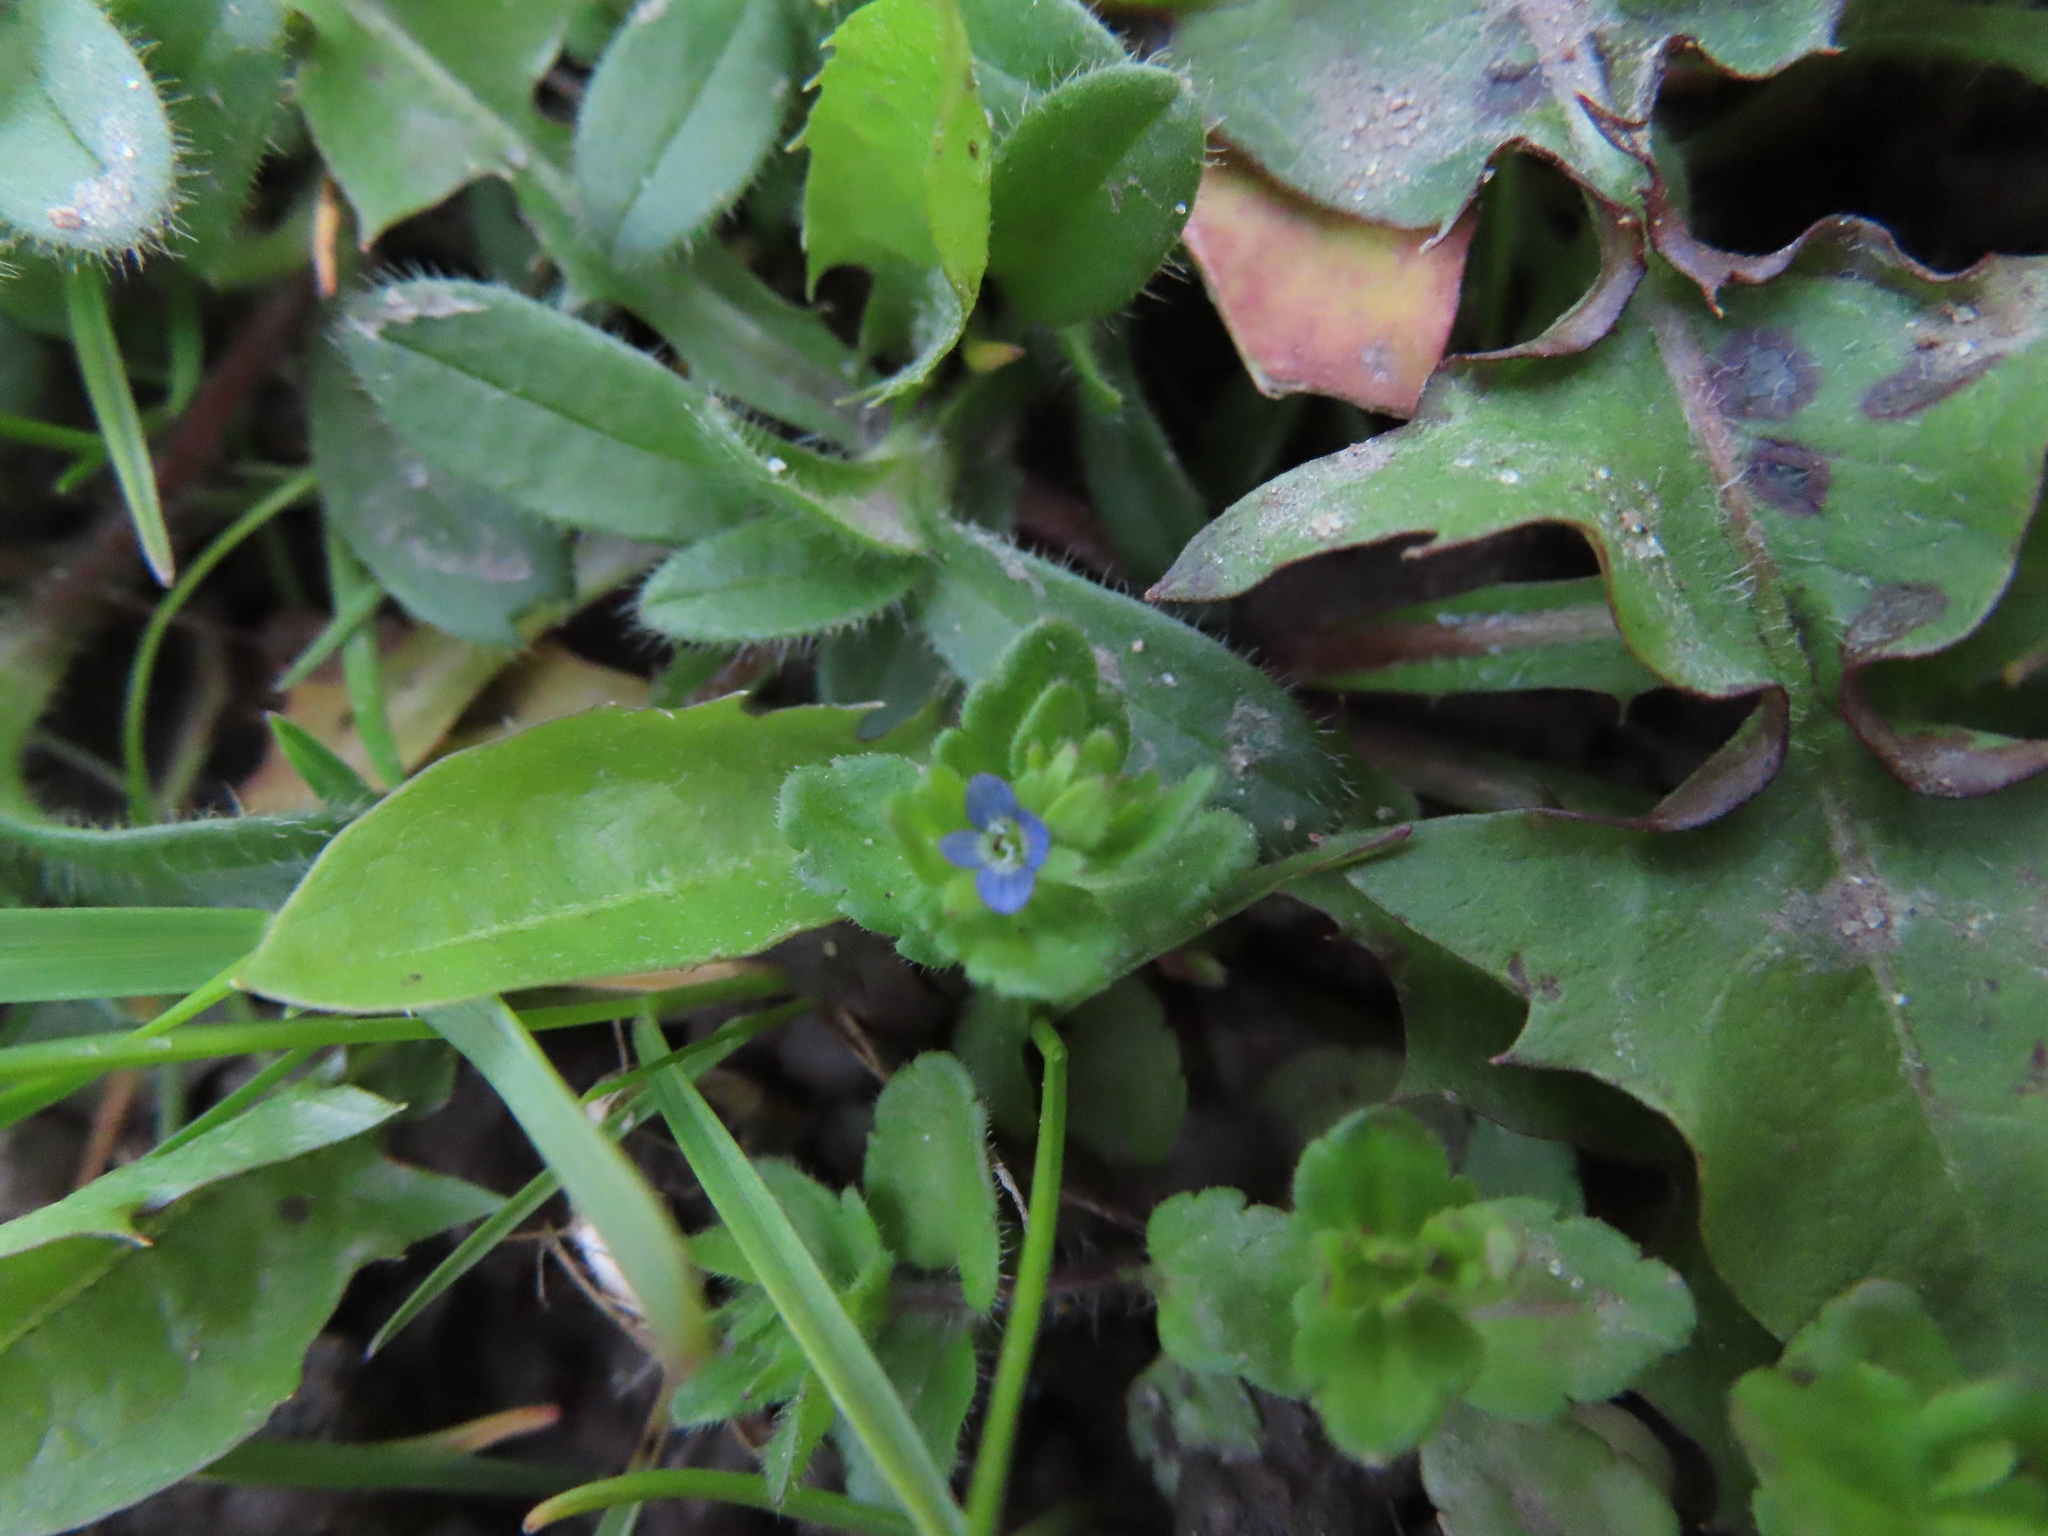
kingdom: Plantae
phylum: Tracheophyta
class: Magnoliopsida
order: Lamiales
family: Plantaginaceae
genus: Veronica
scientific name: Veronica arvensis
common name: Corn speedwell
